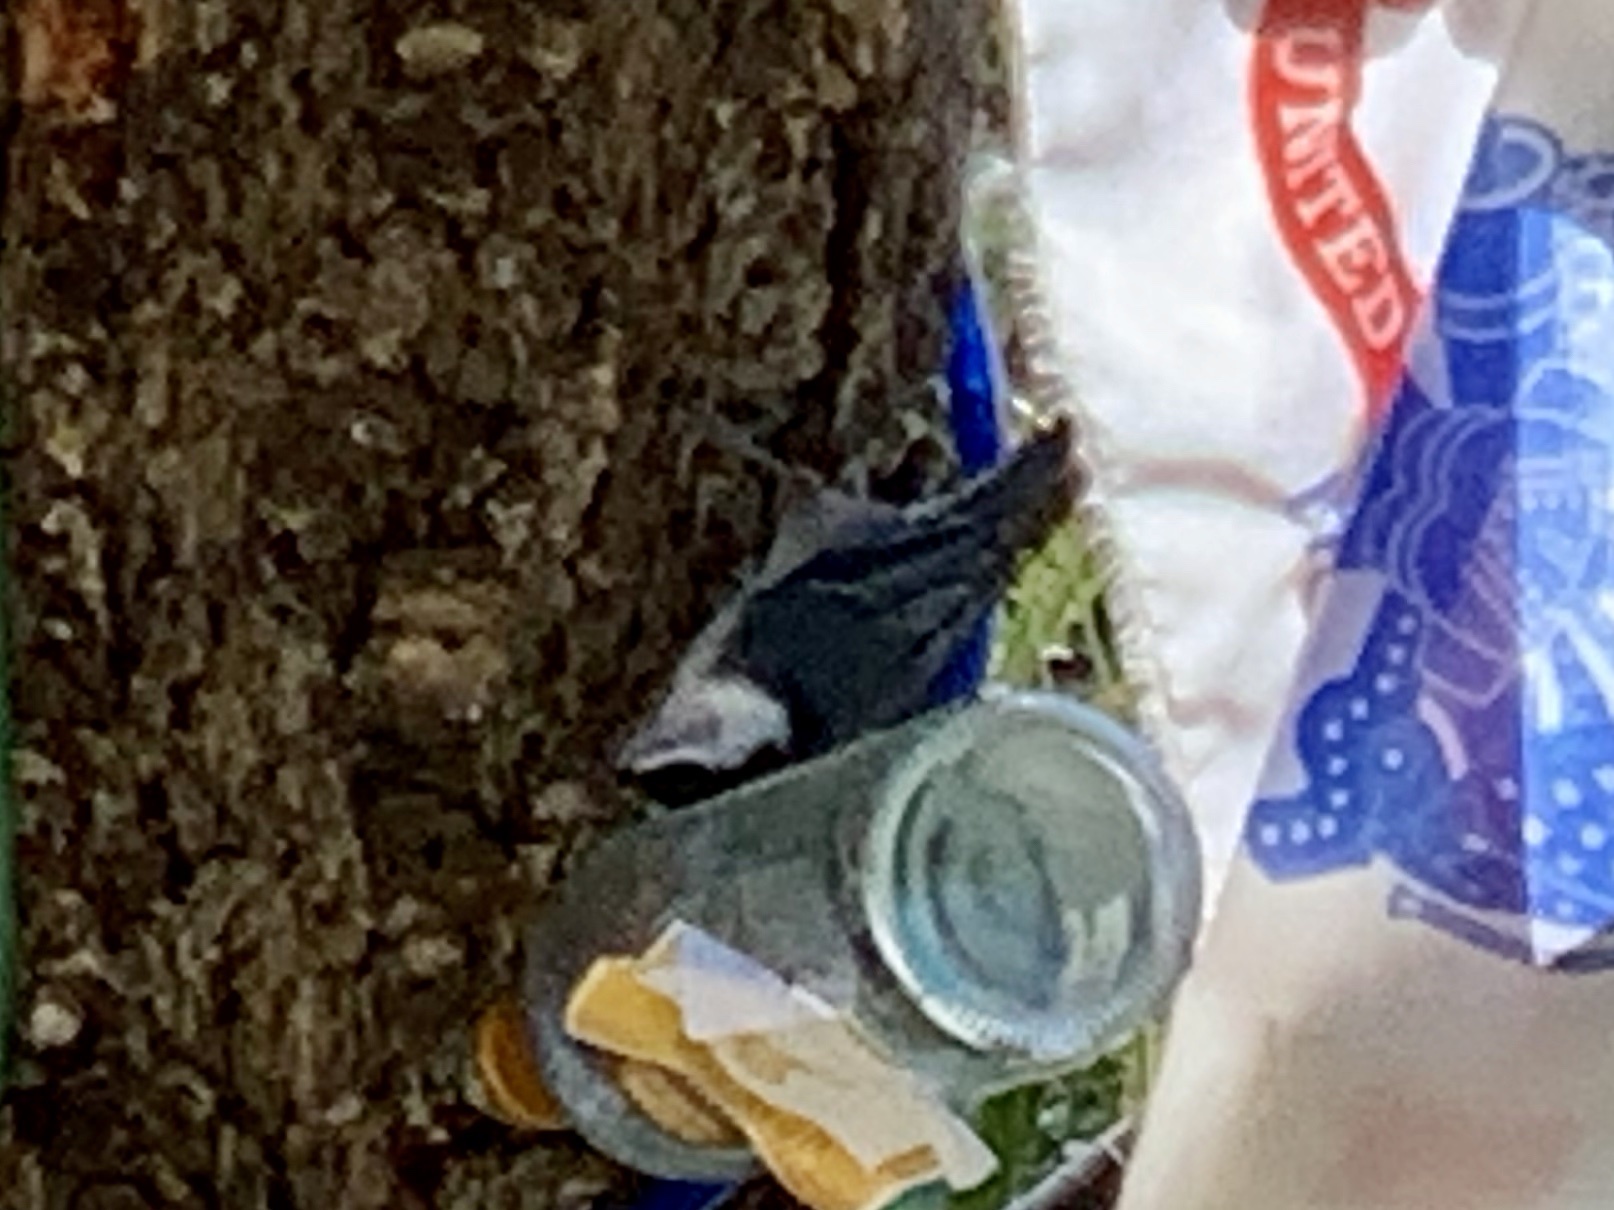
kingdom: Animalia
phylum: Chordata
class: Aves
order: Passeriformes
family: Sittidae
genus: Sitta
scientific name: Sitta carolinensis
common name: White-breasted nuthatch
